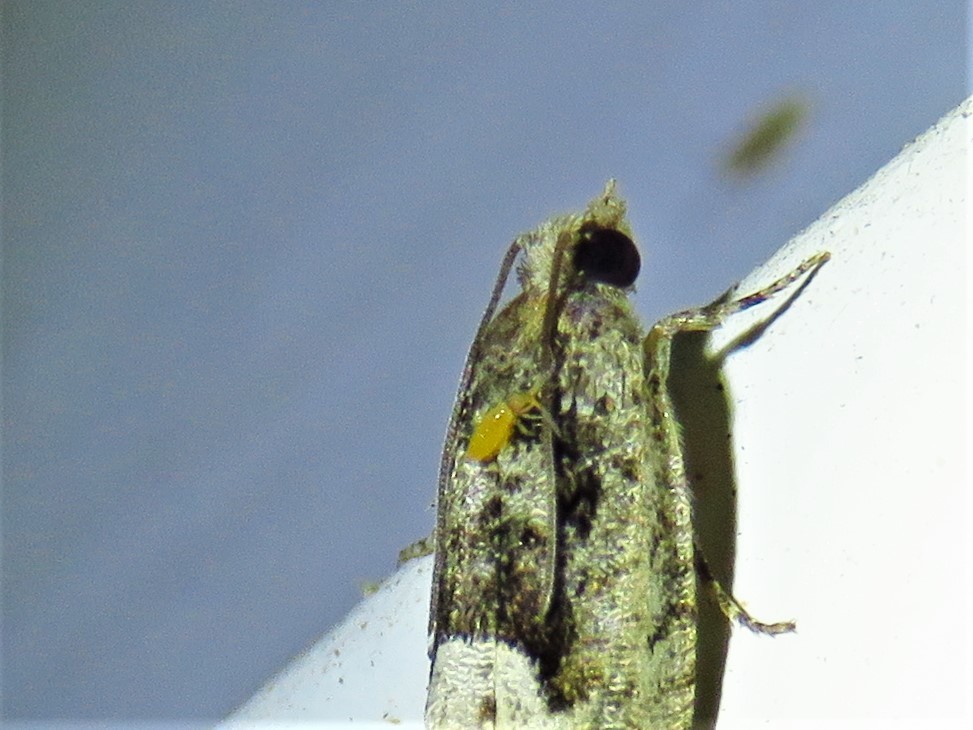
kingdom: Animalia
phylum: Arthropoda
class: Collembola
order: Entomobryomorpha
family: Entomobryidae
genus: Entomobrya
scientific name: Entomobrya atrocincta
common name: Springtail
